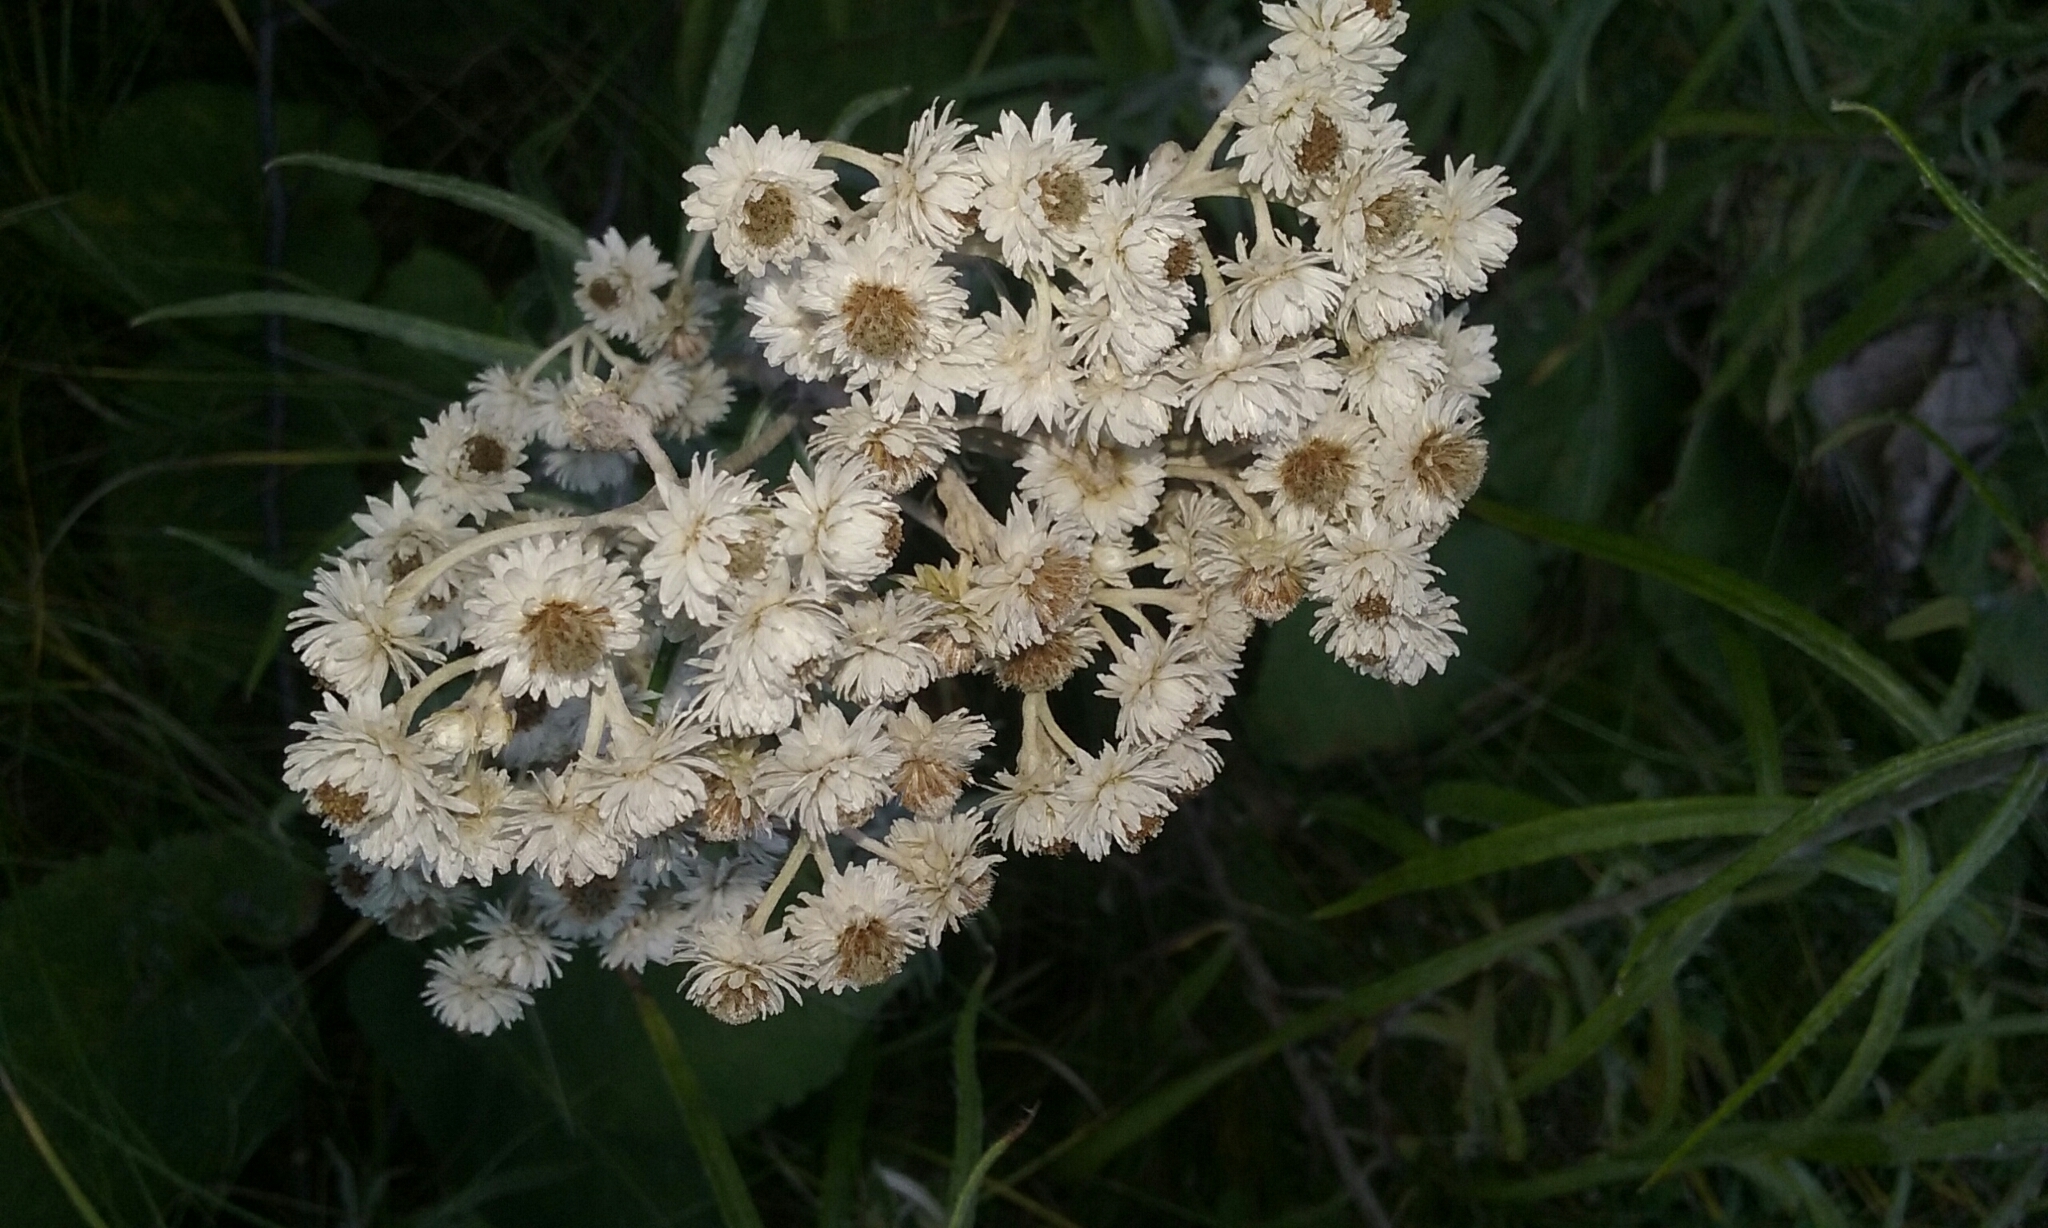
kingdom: Plantae
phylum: Tracheophyta
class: Magnoliopsida
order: Asterales
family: Asteraceae
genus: Anaphalis
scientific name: Anaphalis margaritacea
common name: Pearly everlasting
